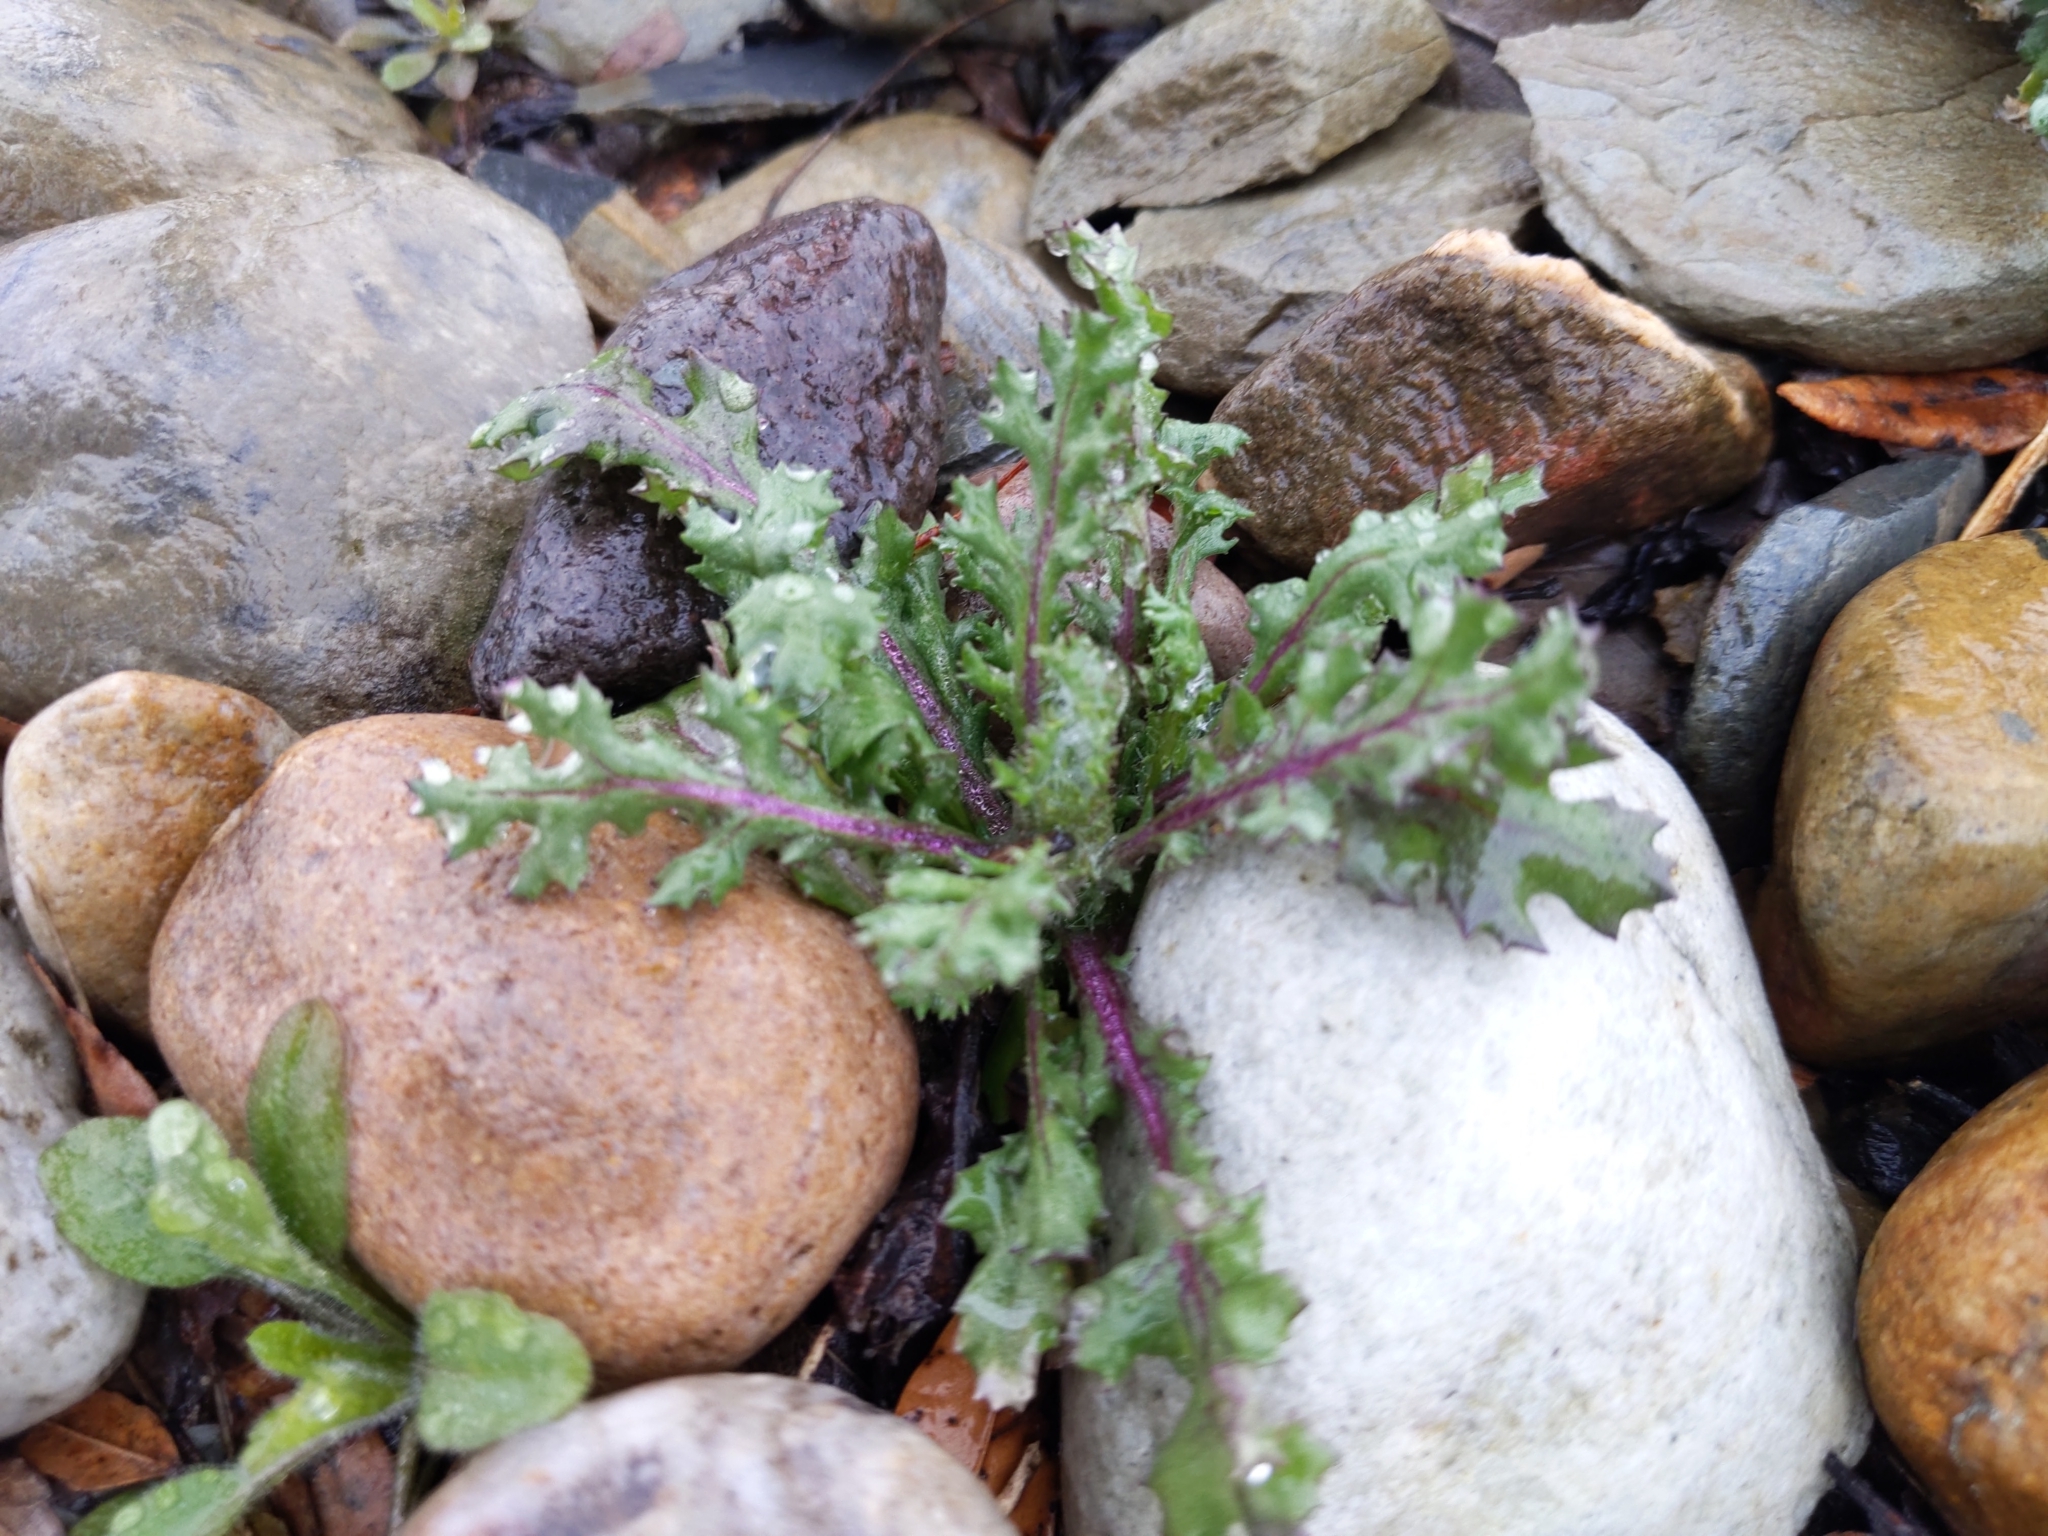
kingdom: Plantae
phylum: Tracheophyta
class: Magnoliopsida
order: Asterales
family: Asteraceae
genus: Senecio
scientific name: Senecio vulgaris
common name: Old-man-in-the-spring
